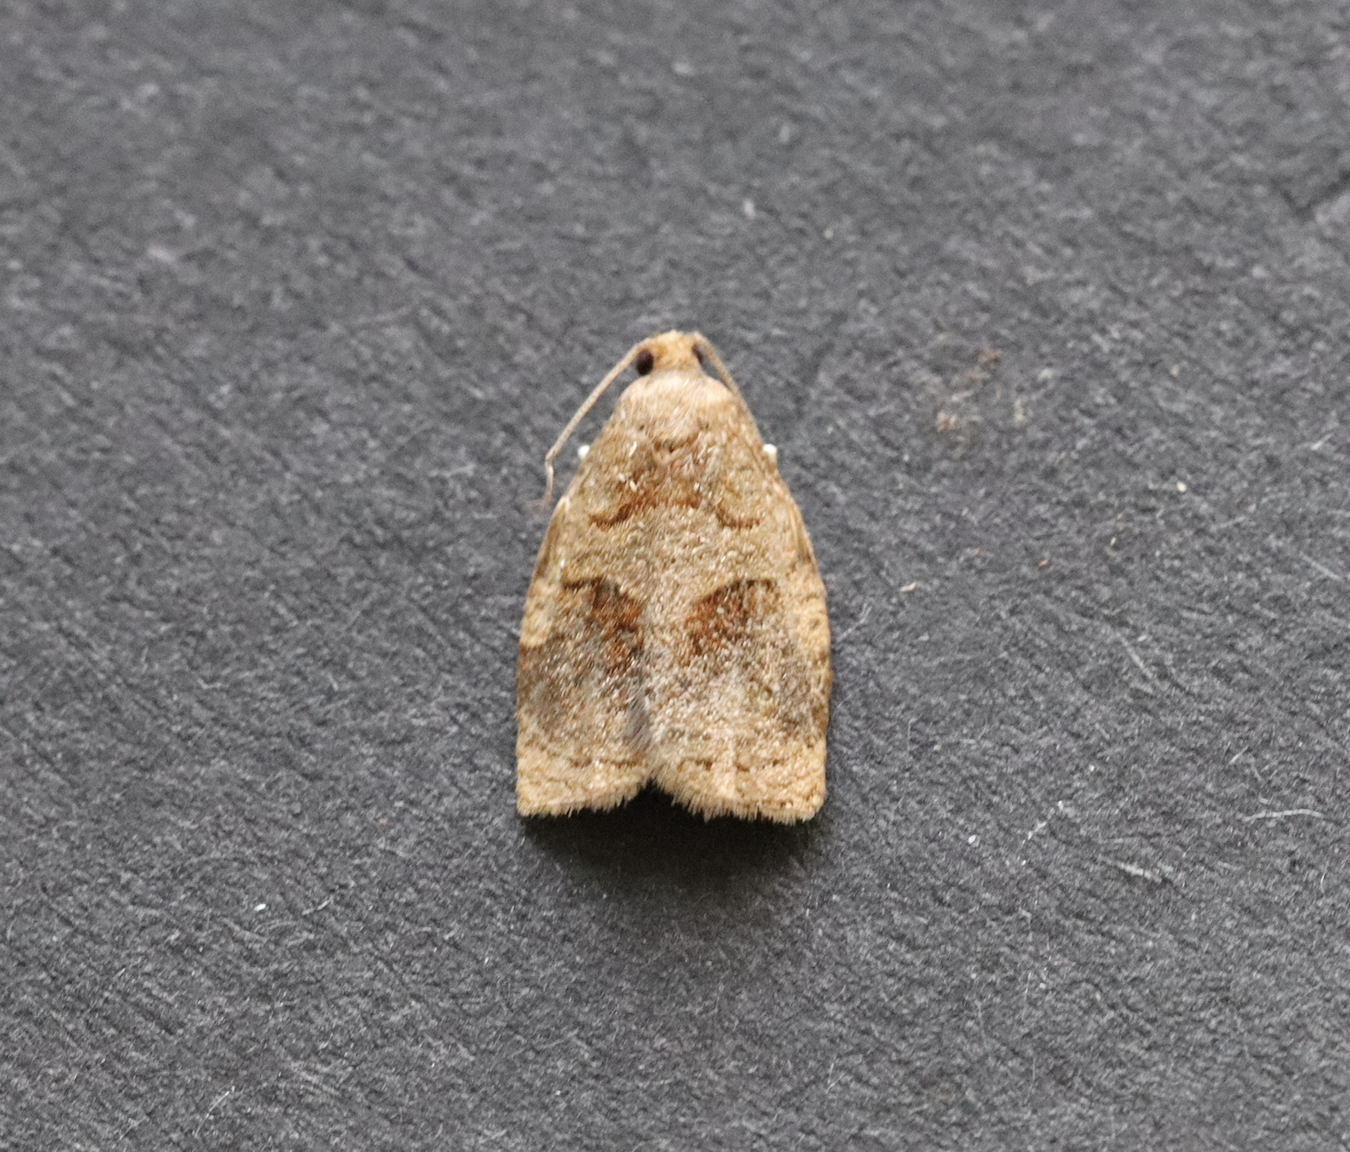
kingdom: Animalia
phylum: Arthropoda
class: Insecta
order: Lepidoptera
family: Tortricidae
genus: Archips
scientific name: Archips rosana
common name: Rose tortrix
